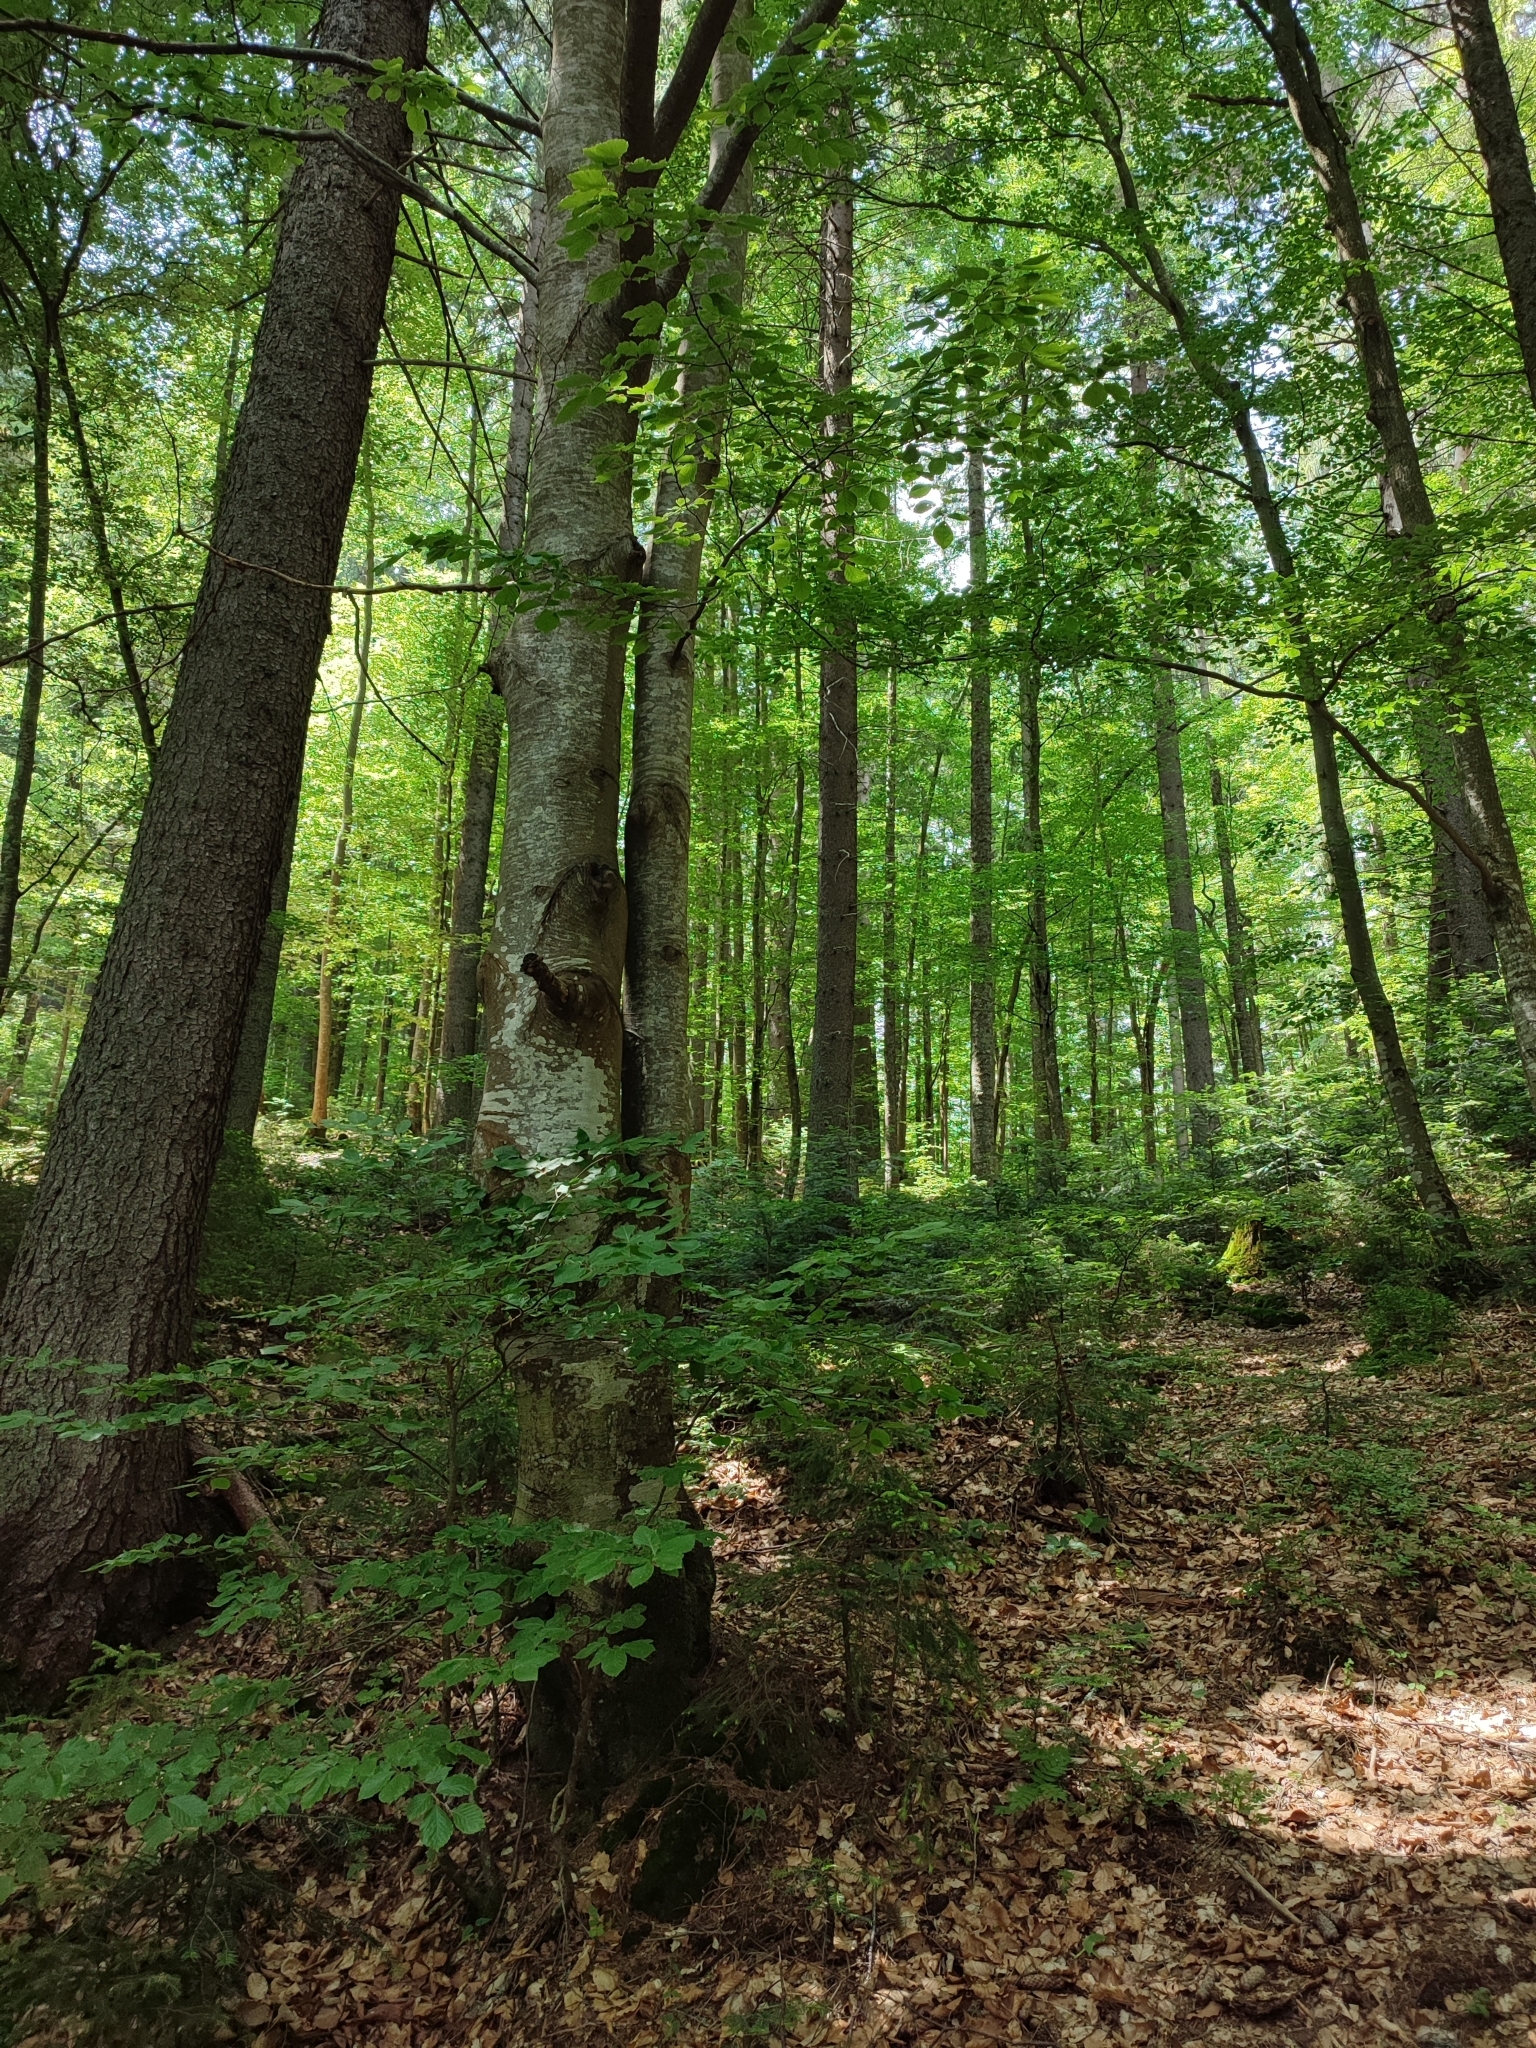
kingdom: Plantae
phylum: Tracheophyta
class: Magnoliopsida
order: Fagales
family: Fagaceae
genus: Fagus
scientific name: Fagus sylvatica
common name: Beech
